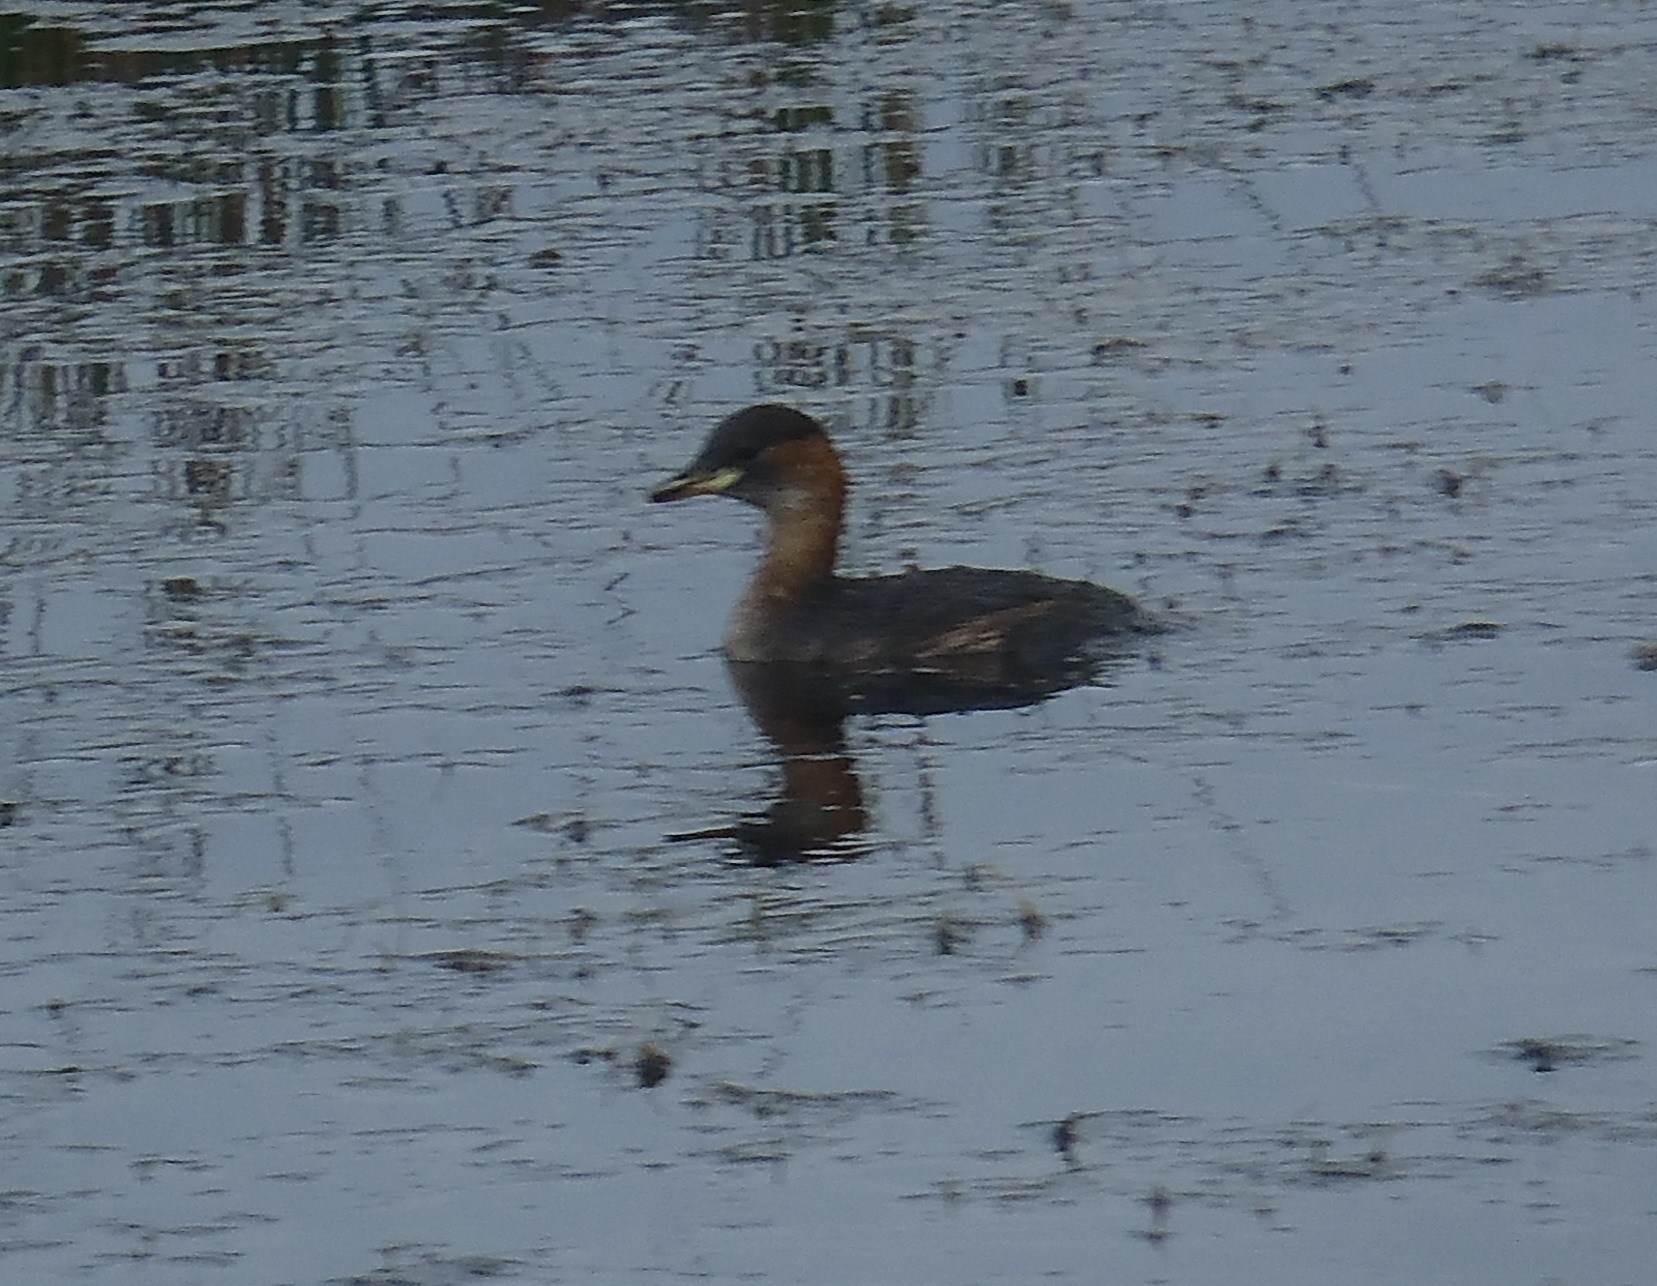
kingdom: Animalia
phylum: Chordata
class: Aves
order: Podicipediformes
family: Podicipedidae
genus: Tachybaptus
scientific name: Tachybaptus ruficollis
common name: Little grebe
